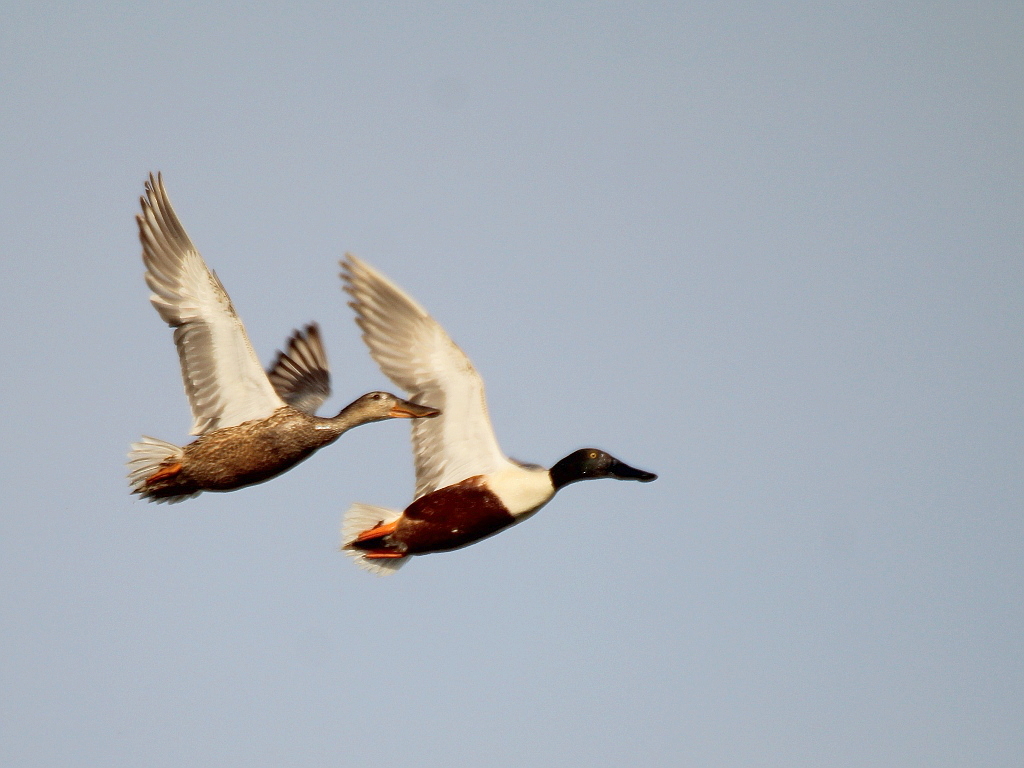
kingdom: Animalia
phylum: Chordata
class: Aves
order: Anseriformes
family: Anatidae
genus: Spatula
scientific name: Spatula clypeata
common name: Northern shoveler
